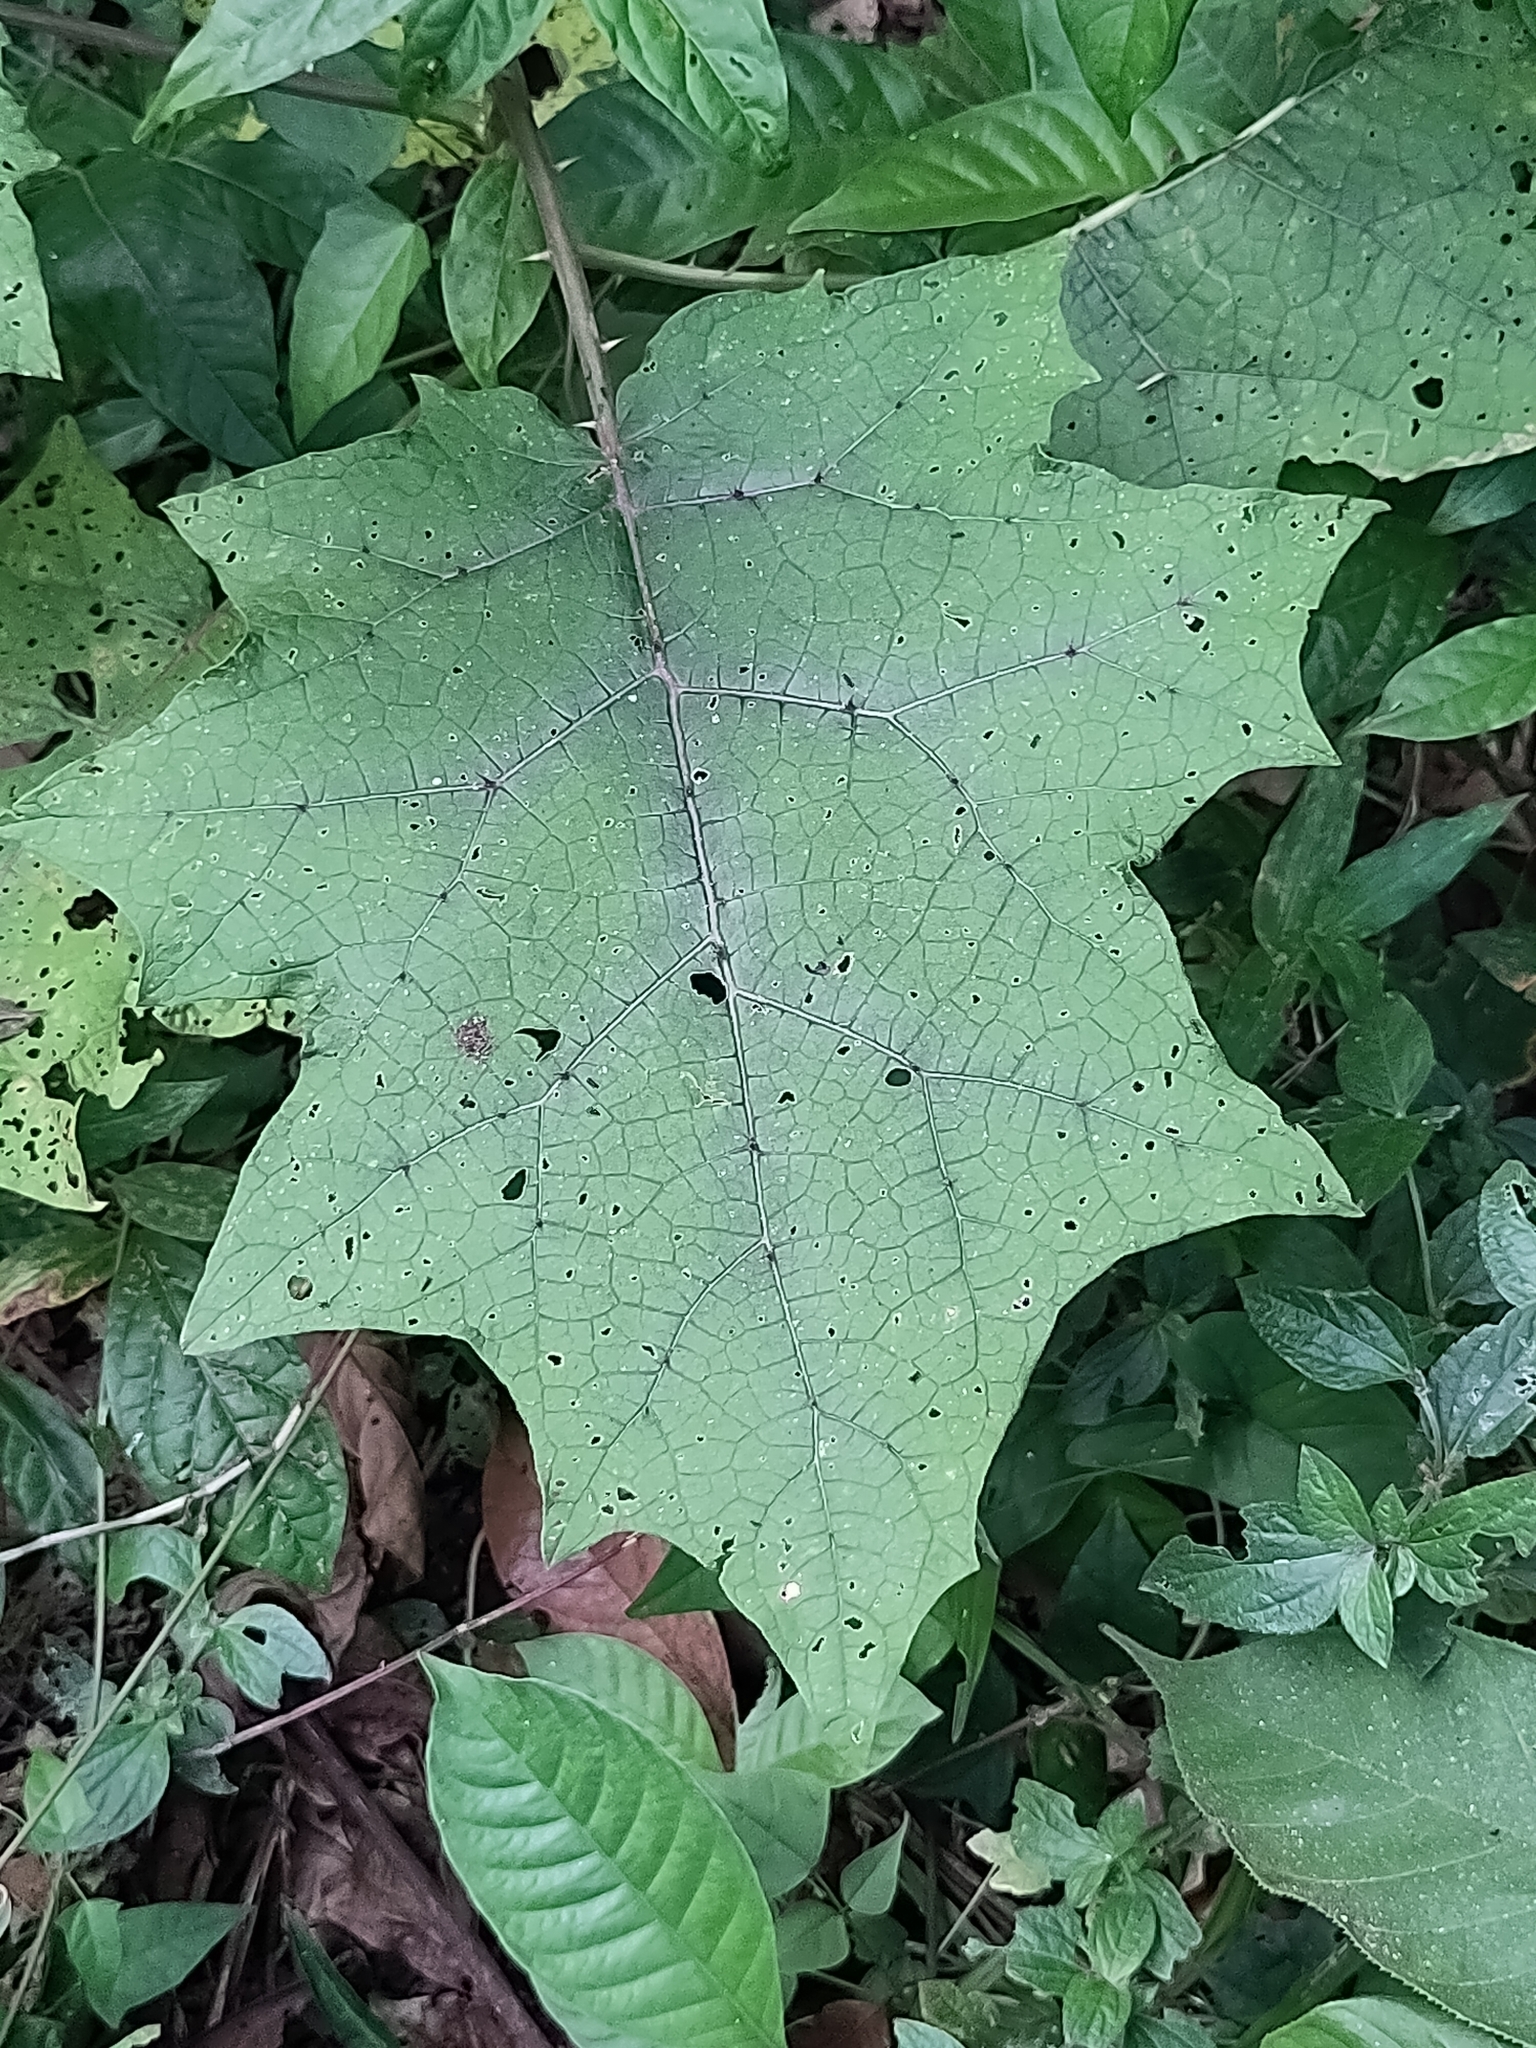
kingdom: Plantae
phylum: Tracheophyta
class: Magnoliopsida
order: Solanales
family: Solanaceae
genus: Solanum
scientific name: Solanum
